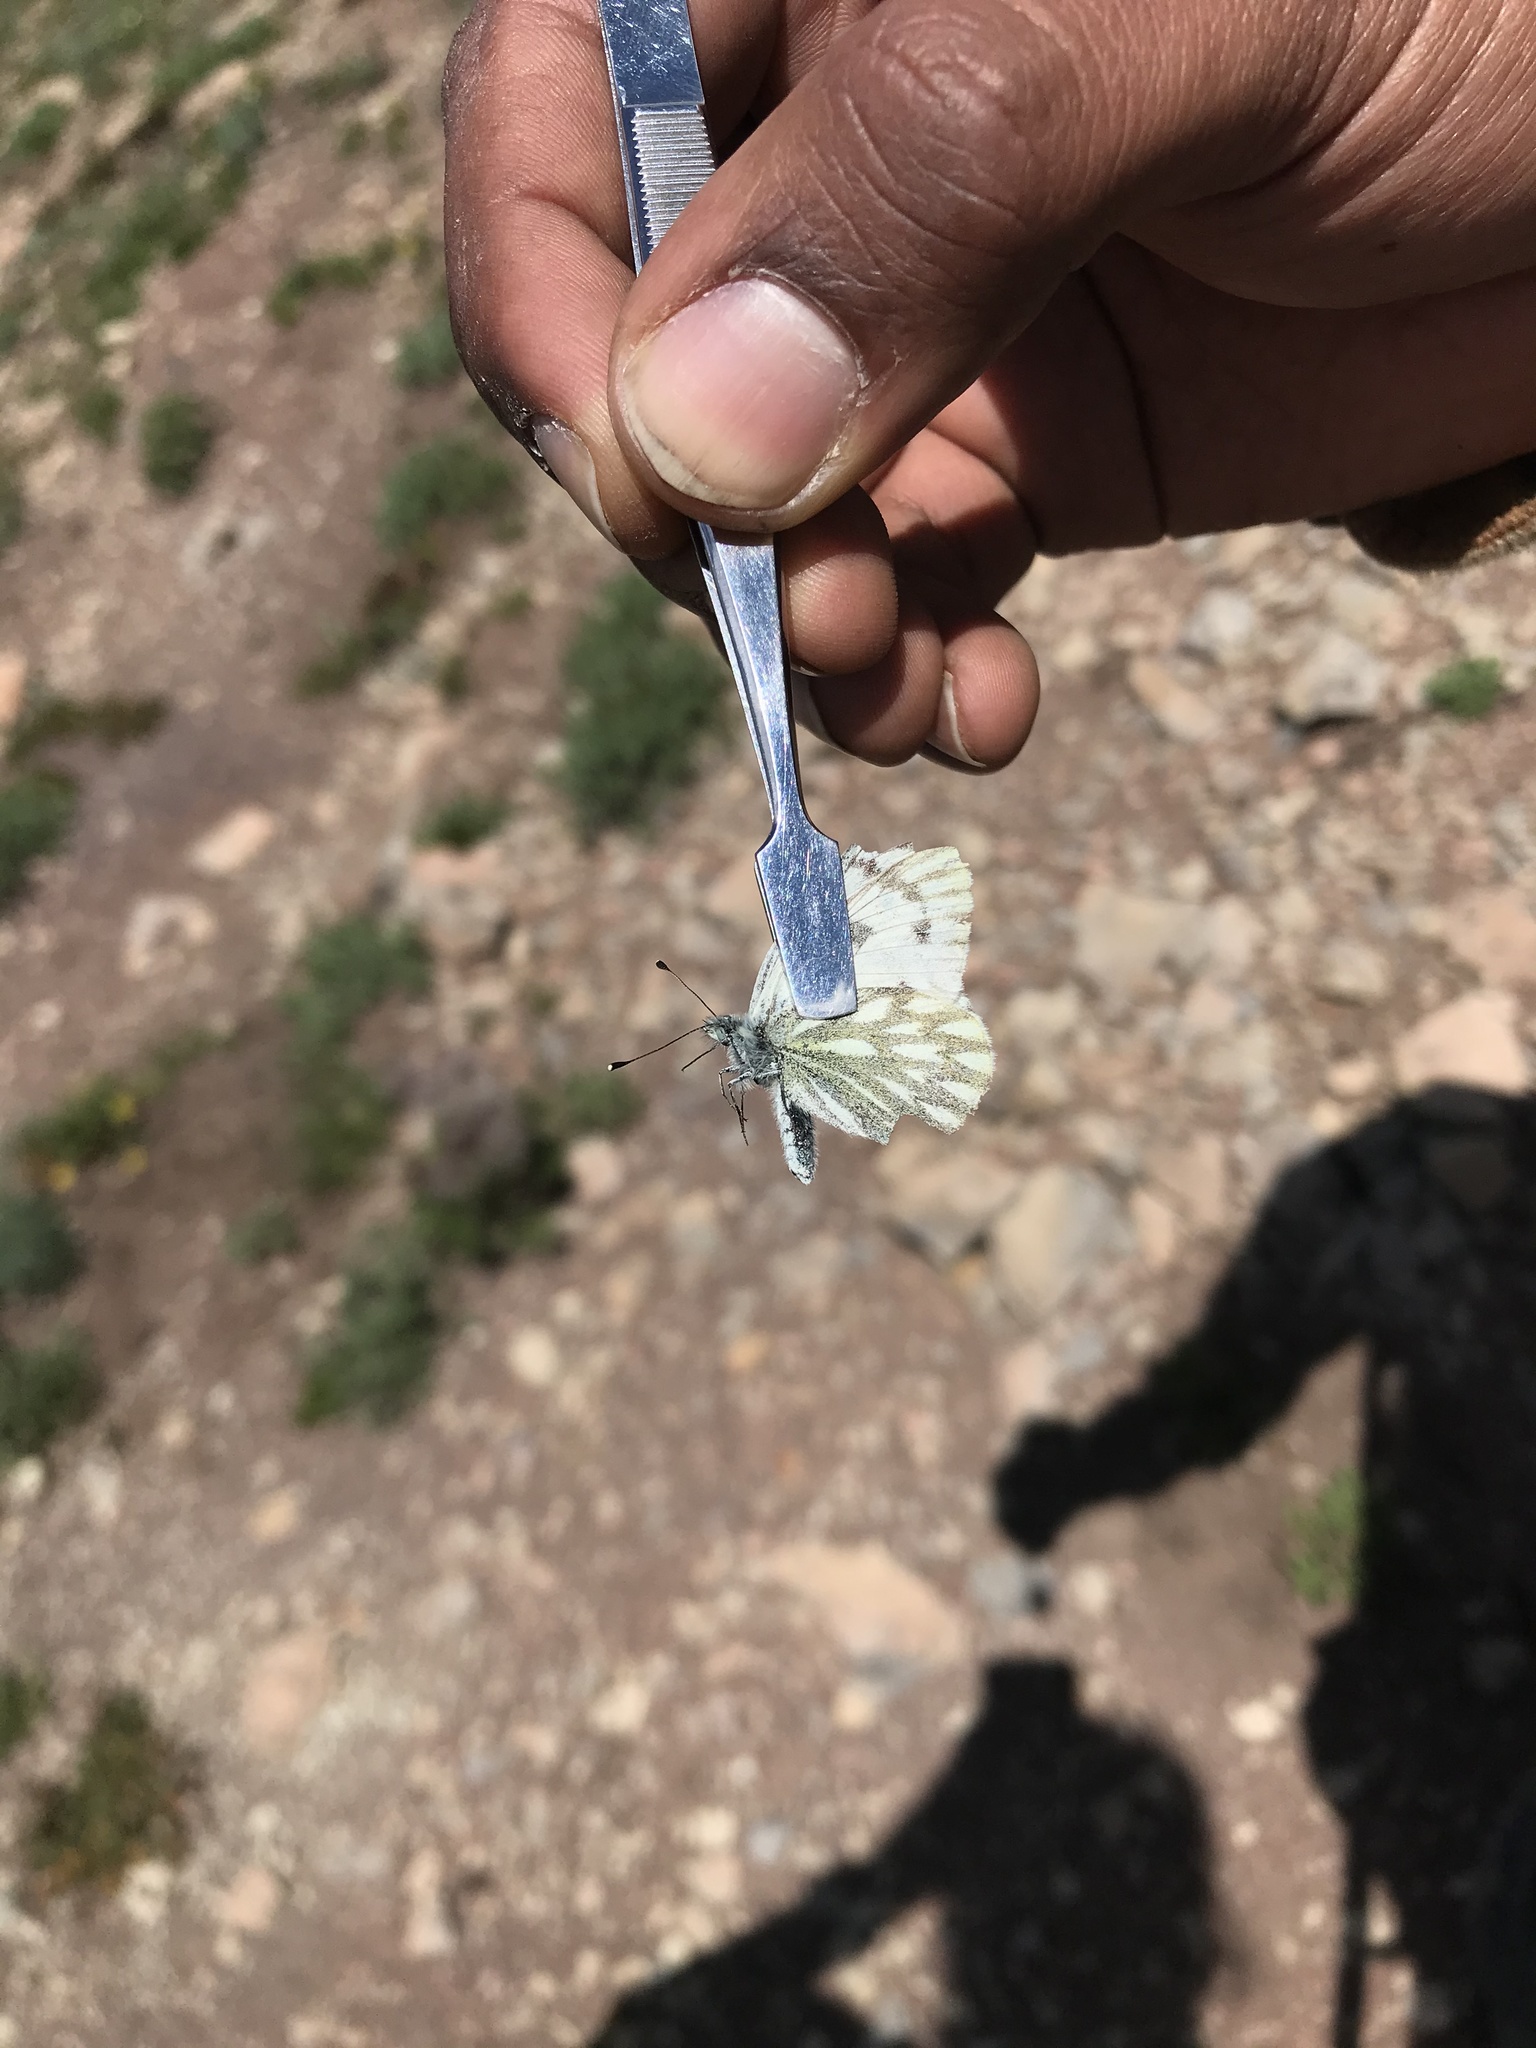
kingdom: Animalia
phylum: Arthropoda
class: Insecta
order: Lepidoptera
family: Pieridae
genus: Pontia
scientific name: Pontia occidentalis
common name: Western white
